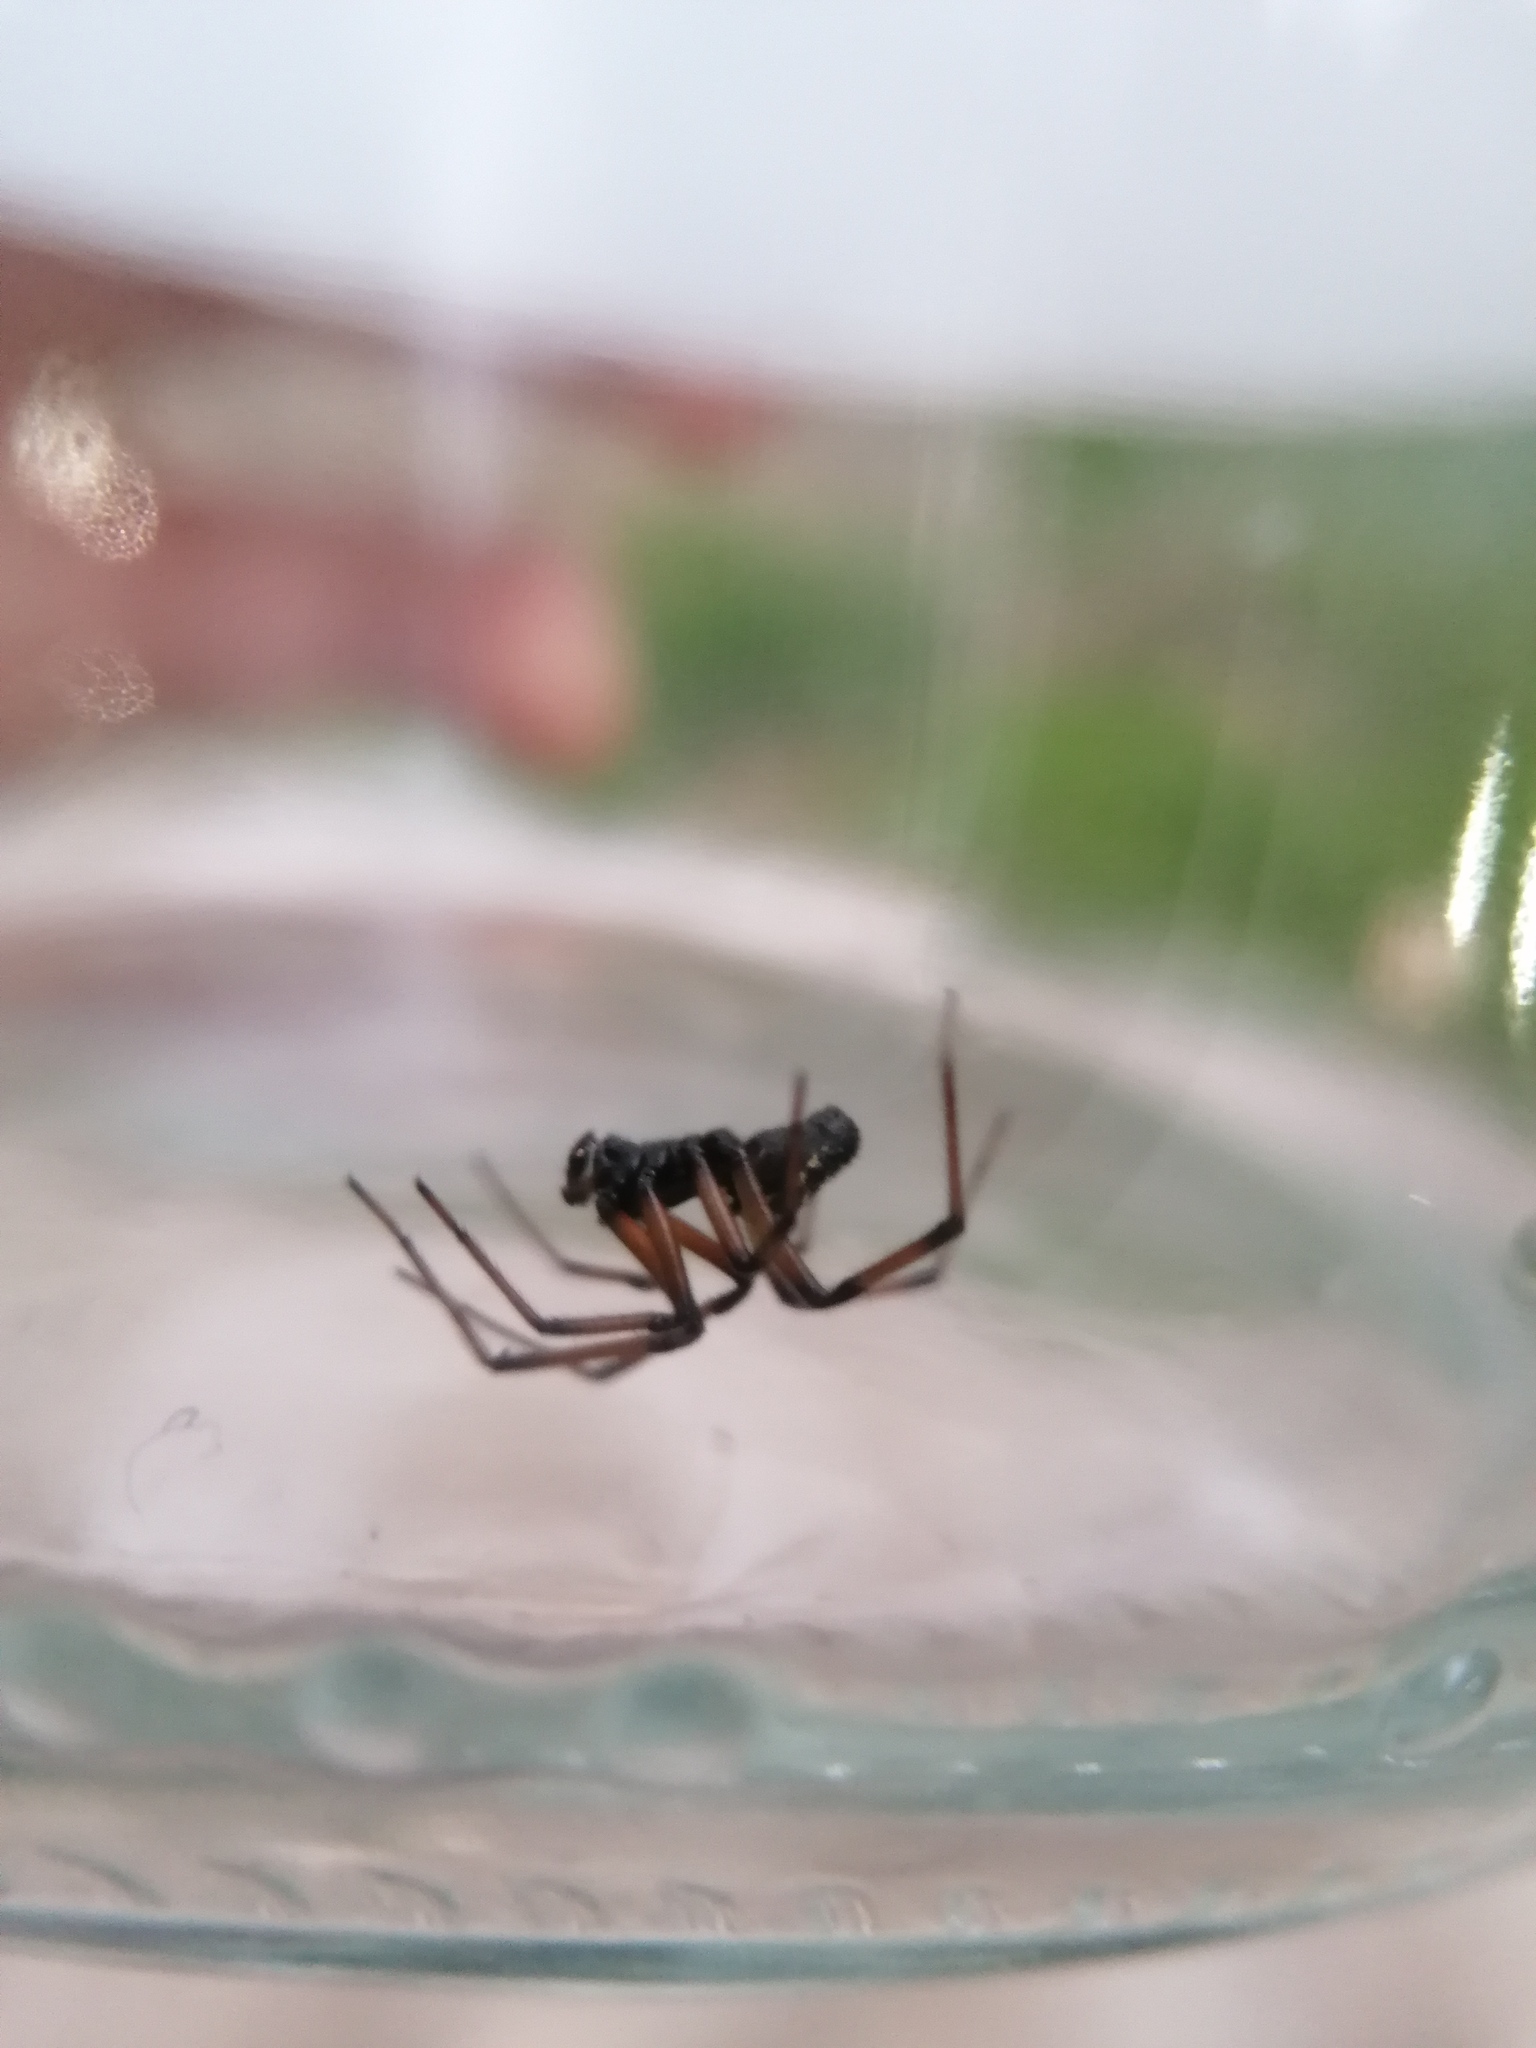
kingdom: Animalia
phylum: Arthropoda
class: Arachnida
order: Araneae
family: Theridiidae
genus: Steatoda
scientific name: Steatoda paykulliana
